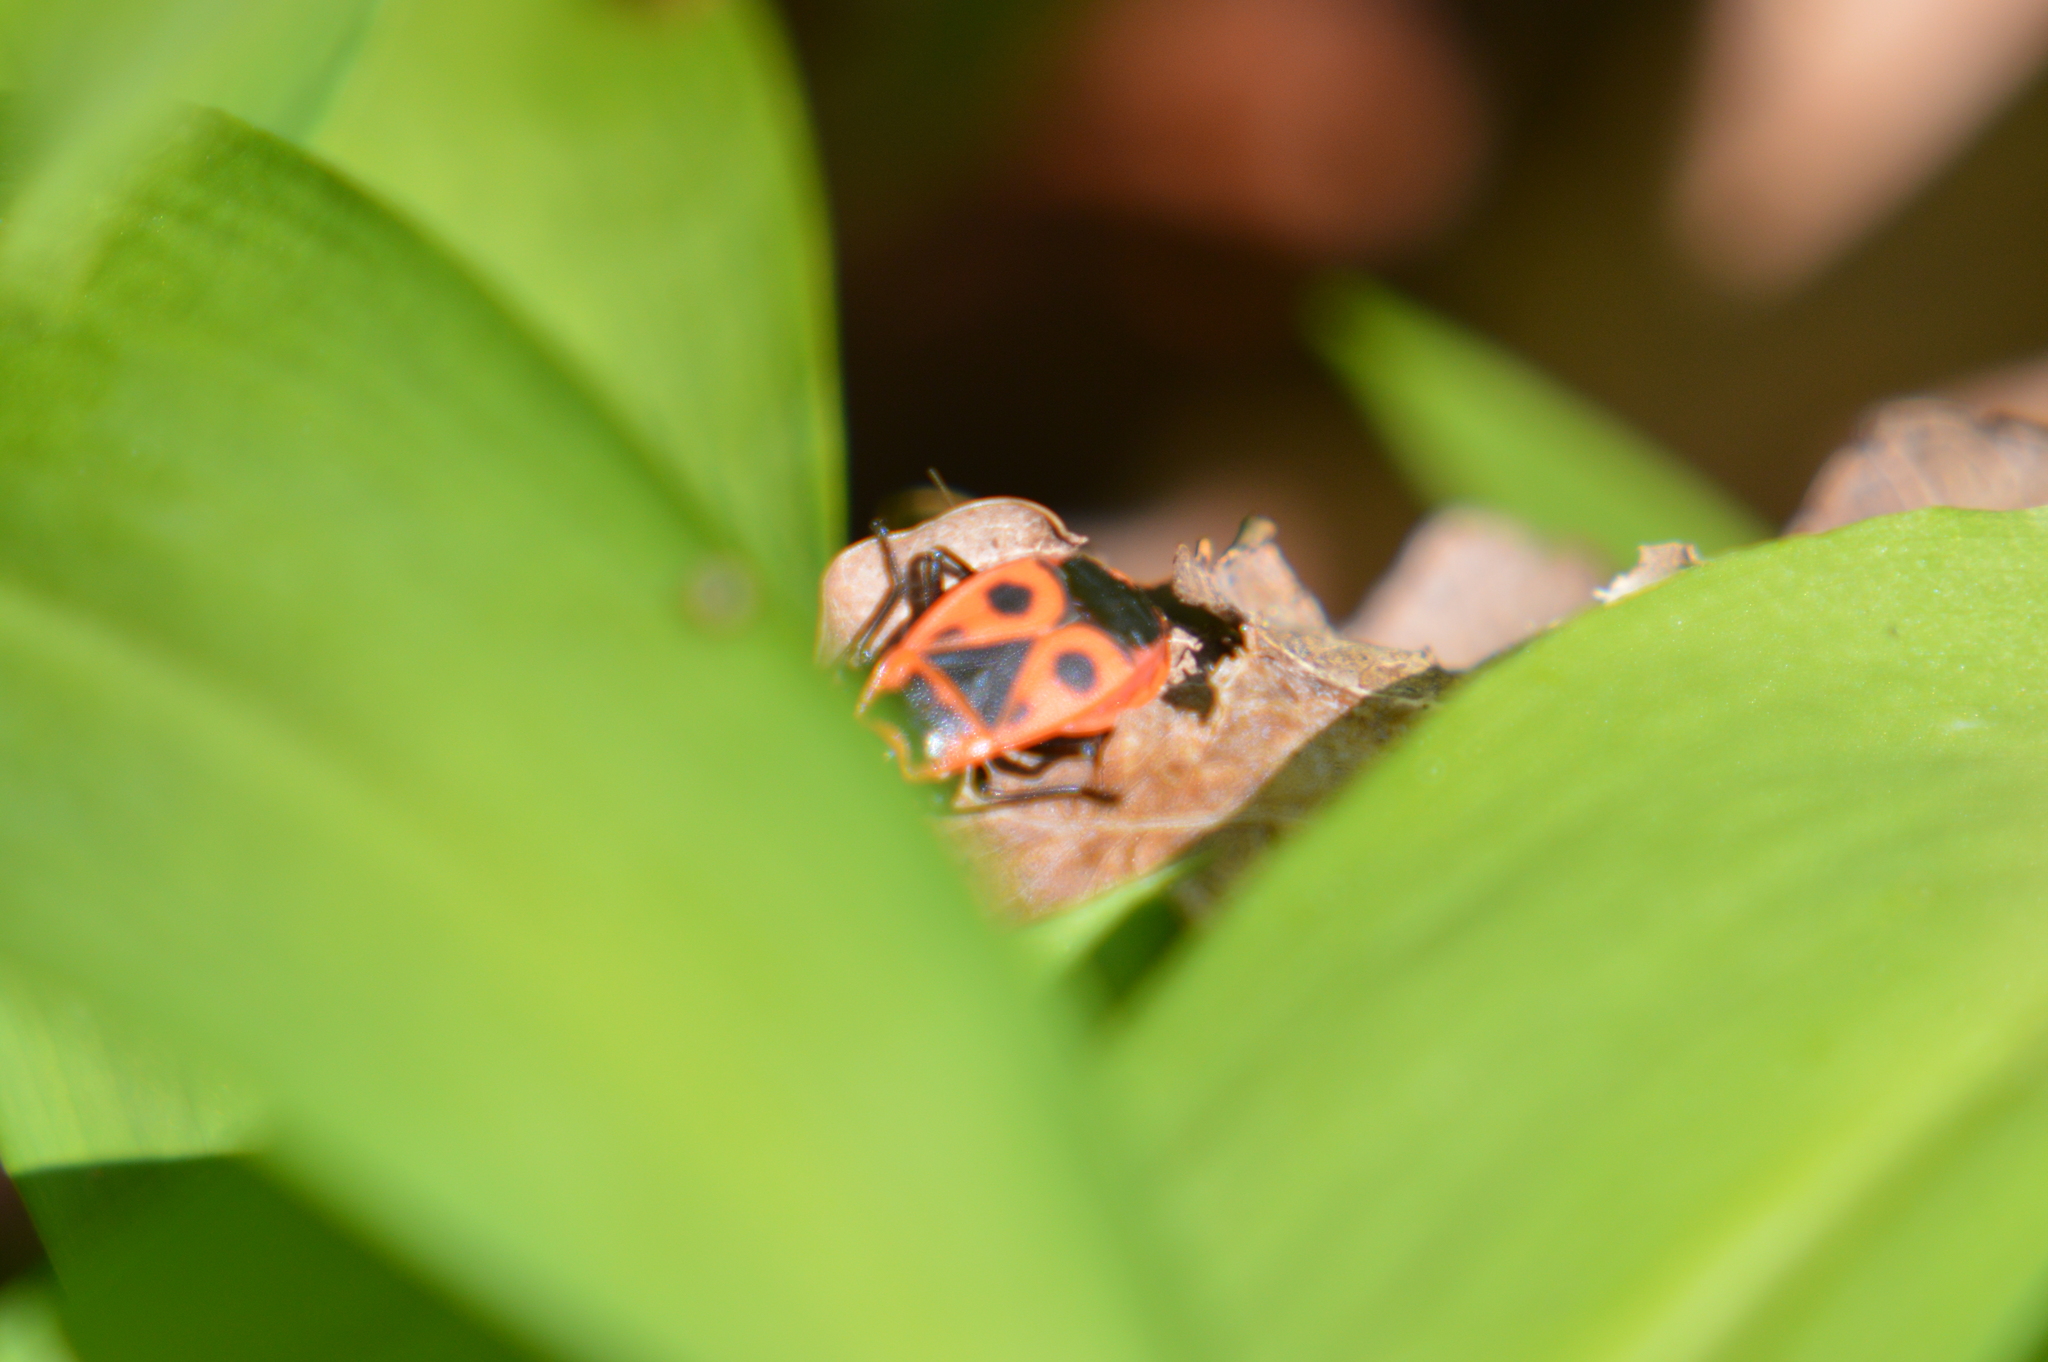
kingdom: Animalia
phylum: Arthropoda
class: Insecta
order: Hemiptera
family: Pyrrhocoridae
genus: Pyrrhocoris
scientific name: Pyrrhocoris apterus
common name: Firebug
